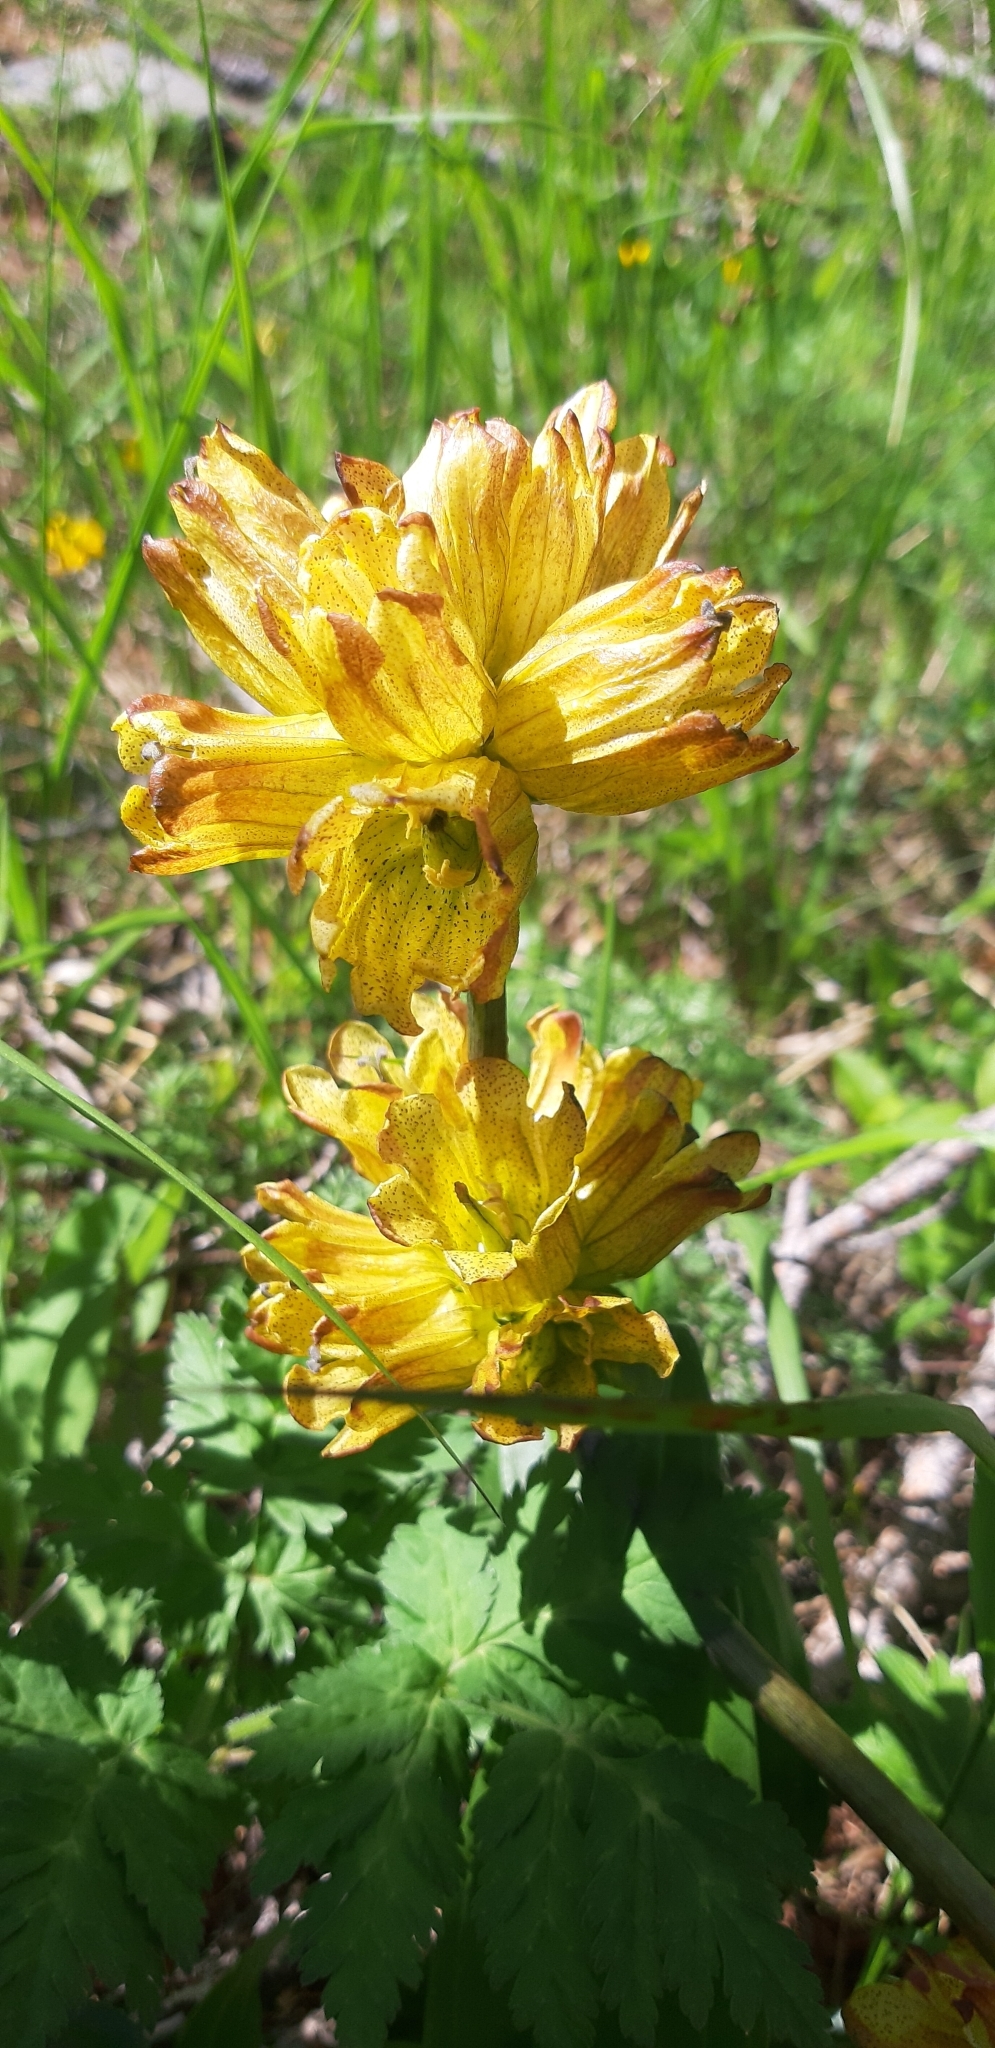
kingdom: Plantae
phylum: Tracheophyta
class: Magnoliopsida
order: Gentianales
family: Gentianaceae
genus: Gentiana
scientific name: Gentiana punctata
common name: Spotted gentian
